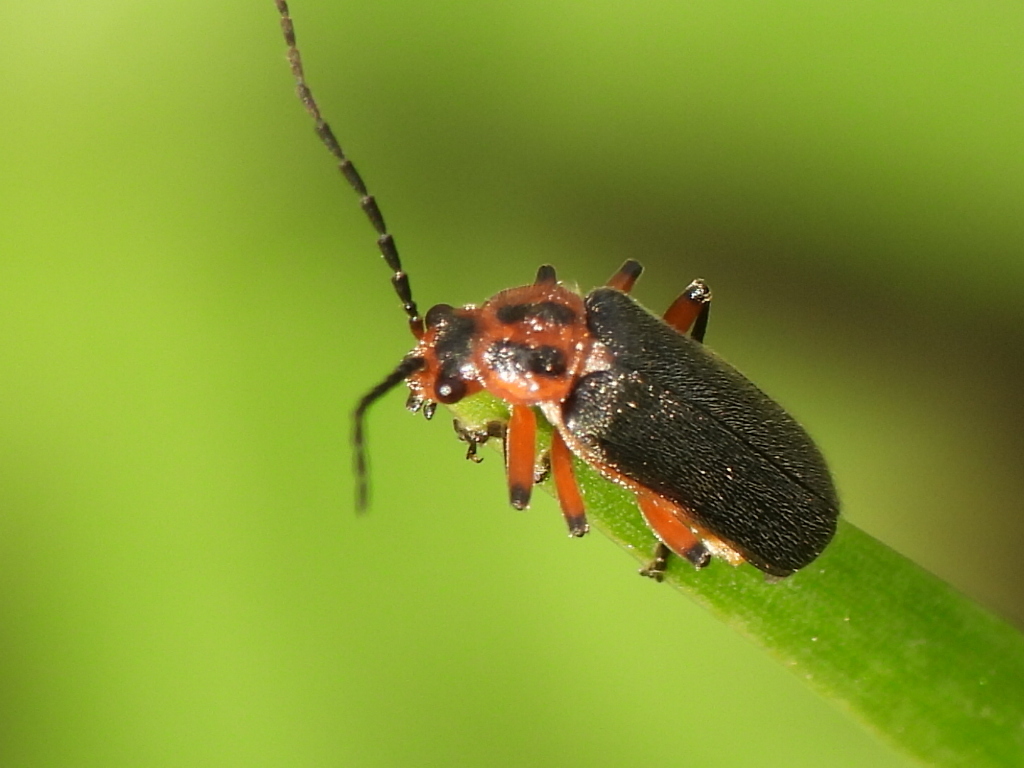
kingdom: Animalia
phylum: Arthropoda
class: Insecta
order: Coleoptera
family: Cantharidae
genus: Atalantycha
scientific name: Atalantycha bilineata
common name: Two-lined leatherwing
